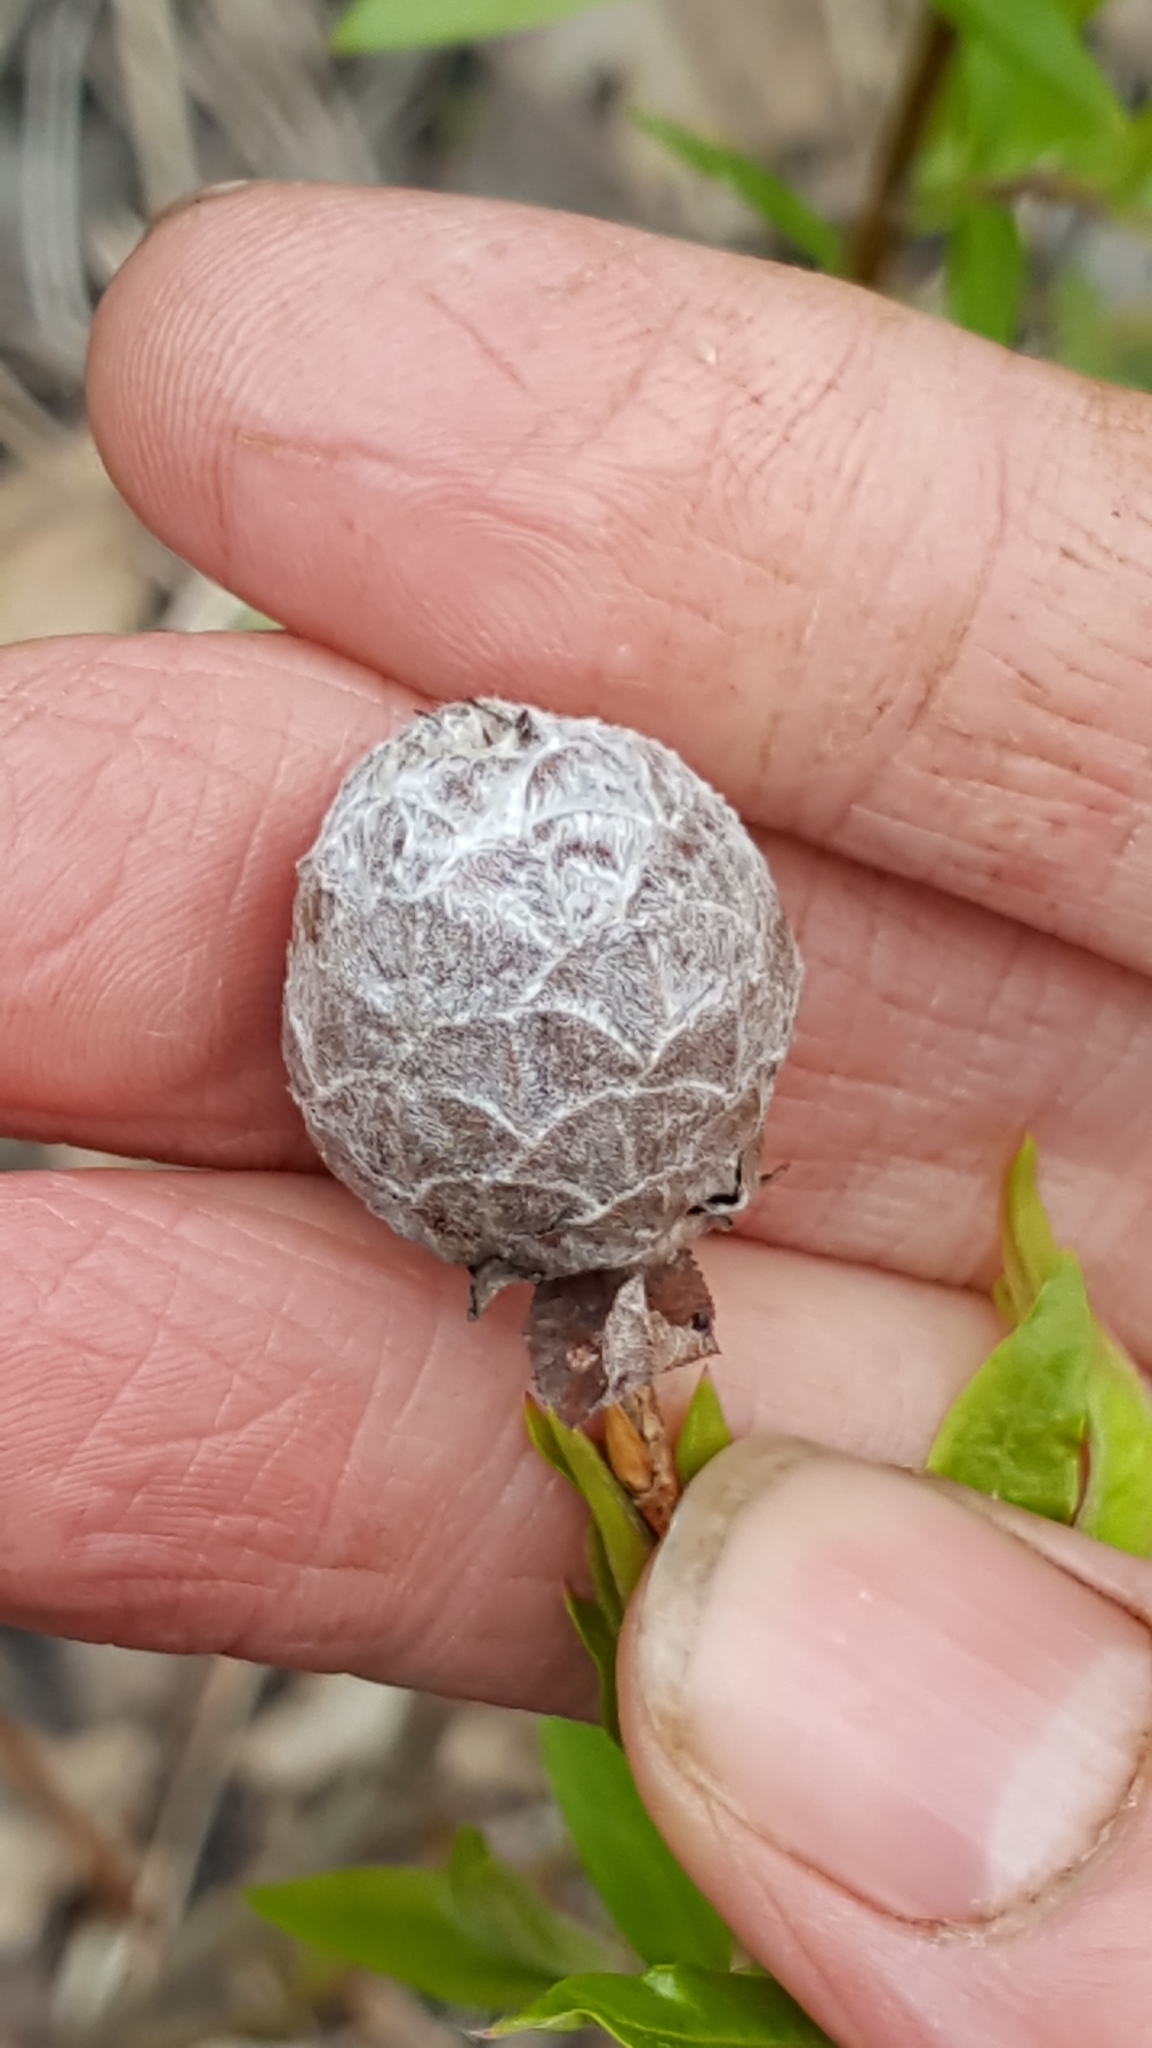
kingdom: Animalia
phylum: Arthropoda
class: Insecta
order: Diptera
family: Cecidomyiidae
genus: Rabdophaga
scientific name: Rabdophaga strobiloides
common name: Willow pinecone gall midge
